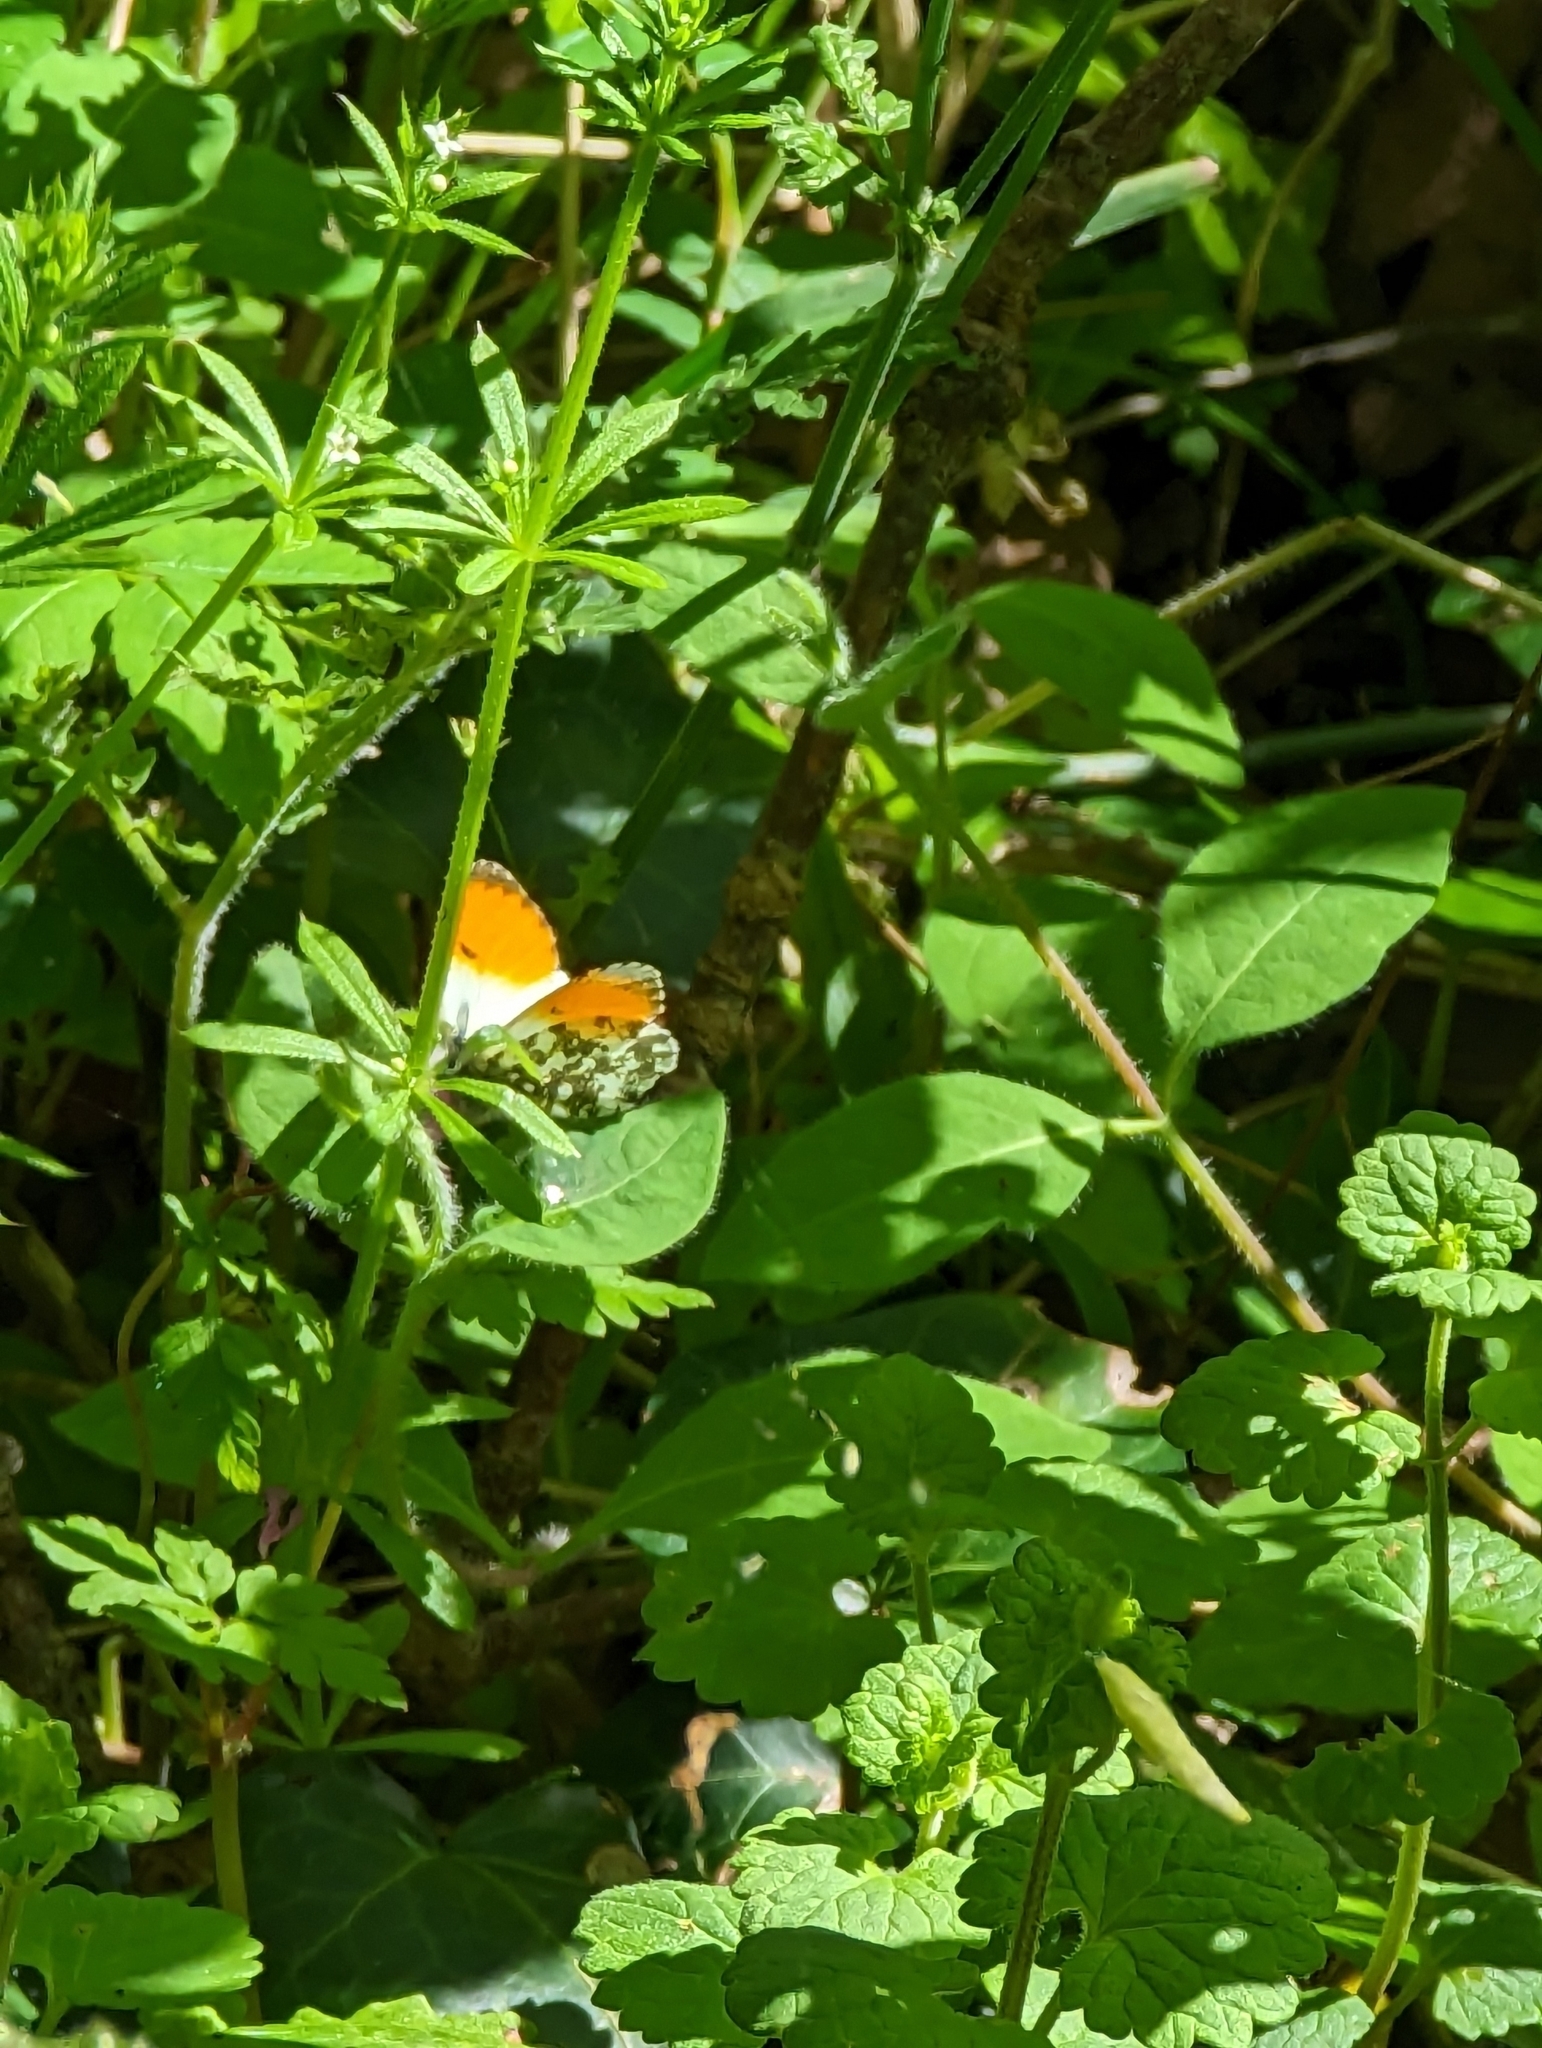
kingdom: Animalia
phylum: Arthropoda
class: Insecta
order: Lepidoptera
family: Pieridae
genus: Anthocharis
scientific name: Anthocharis cardamines
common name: Orange-tip
